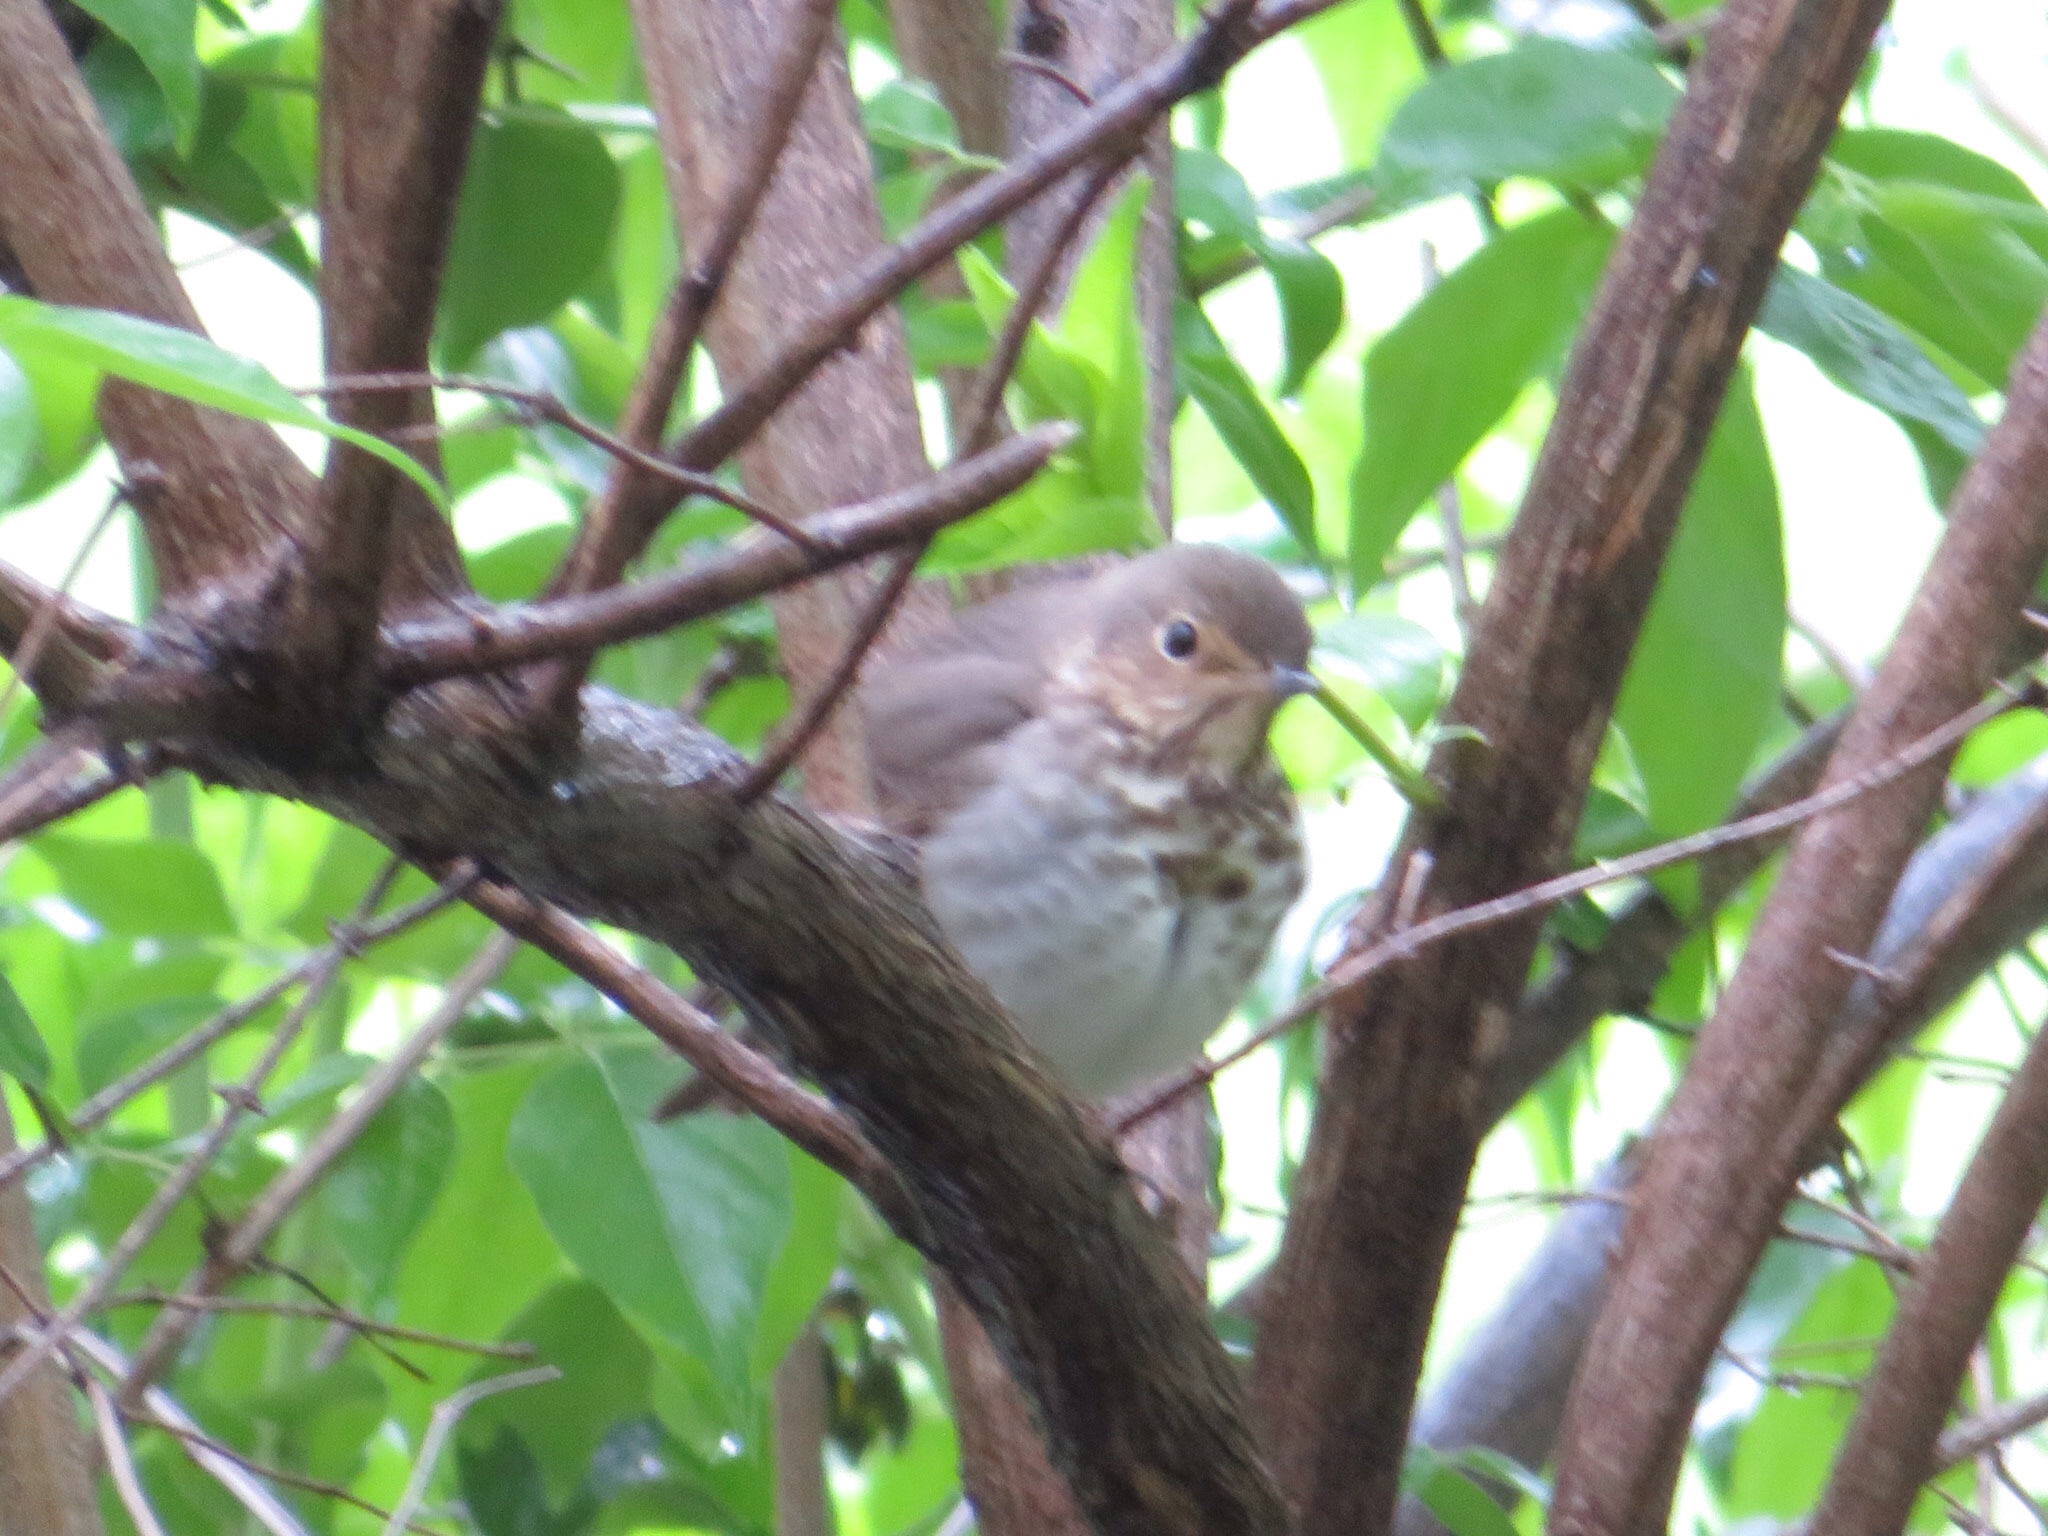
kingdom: Animalia
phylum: Chordata
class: Aves
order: Passeriformes
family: Turdidae
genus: Catharus
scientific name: Catharus ustulatus
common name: Swainson's thrush
